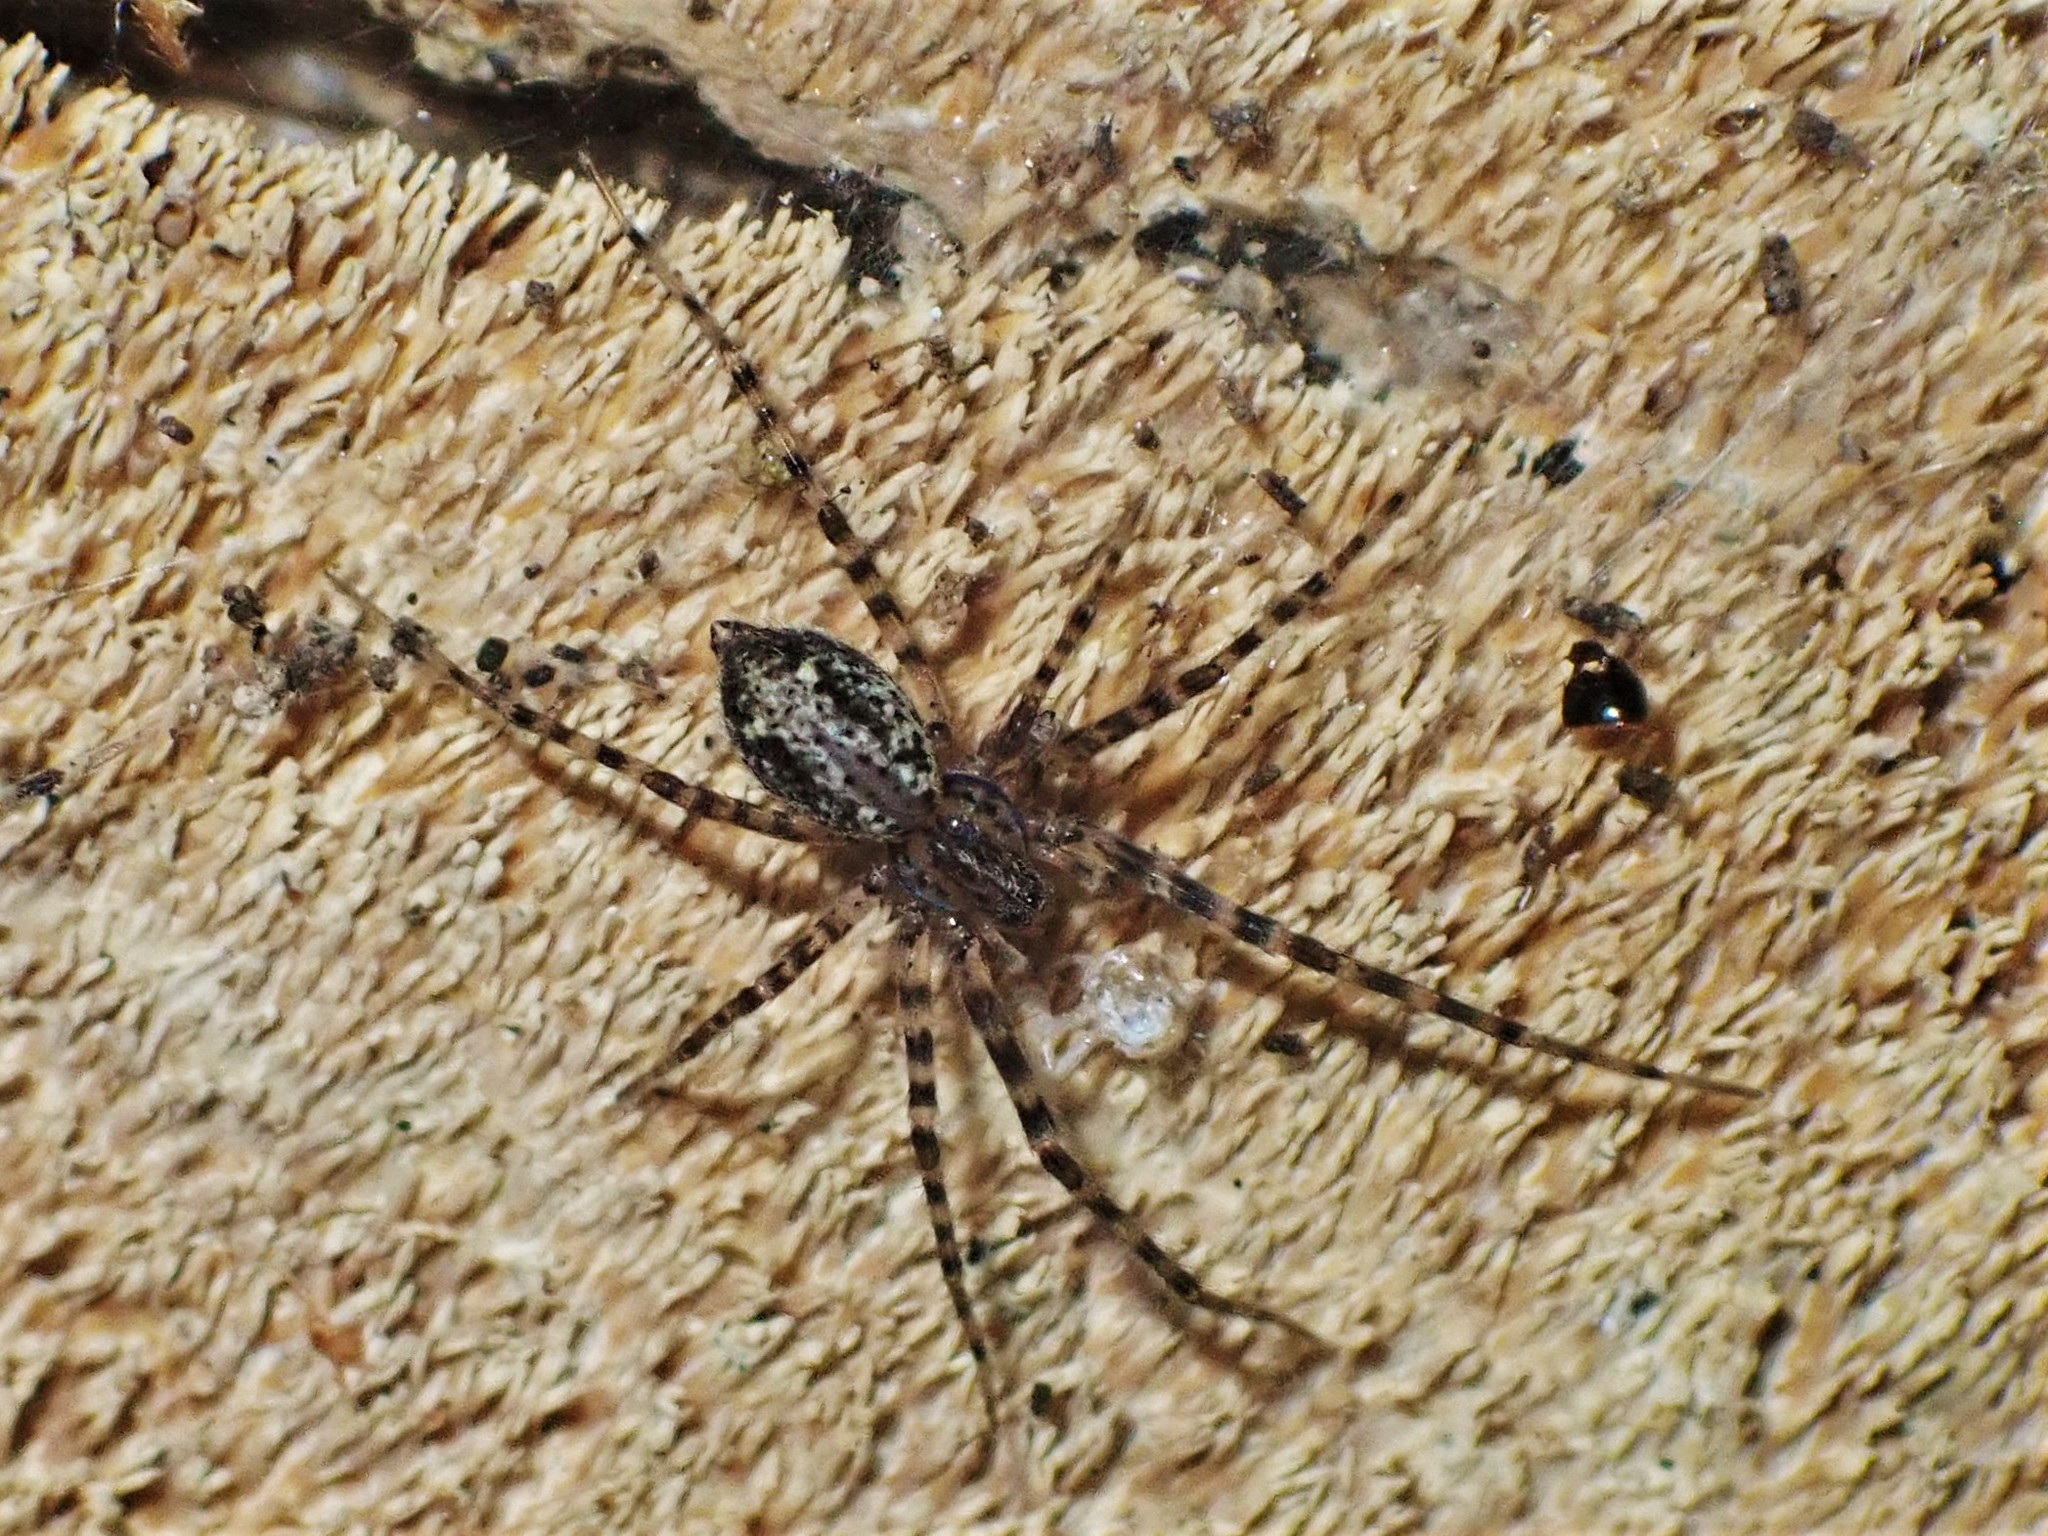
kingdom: Animalia
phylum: Arthropoda
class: Arachnida
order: Araneae
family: Stiphidiidae
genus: Stiphidion
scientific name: Stiphidion facetum
